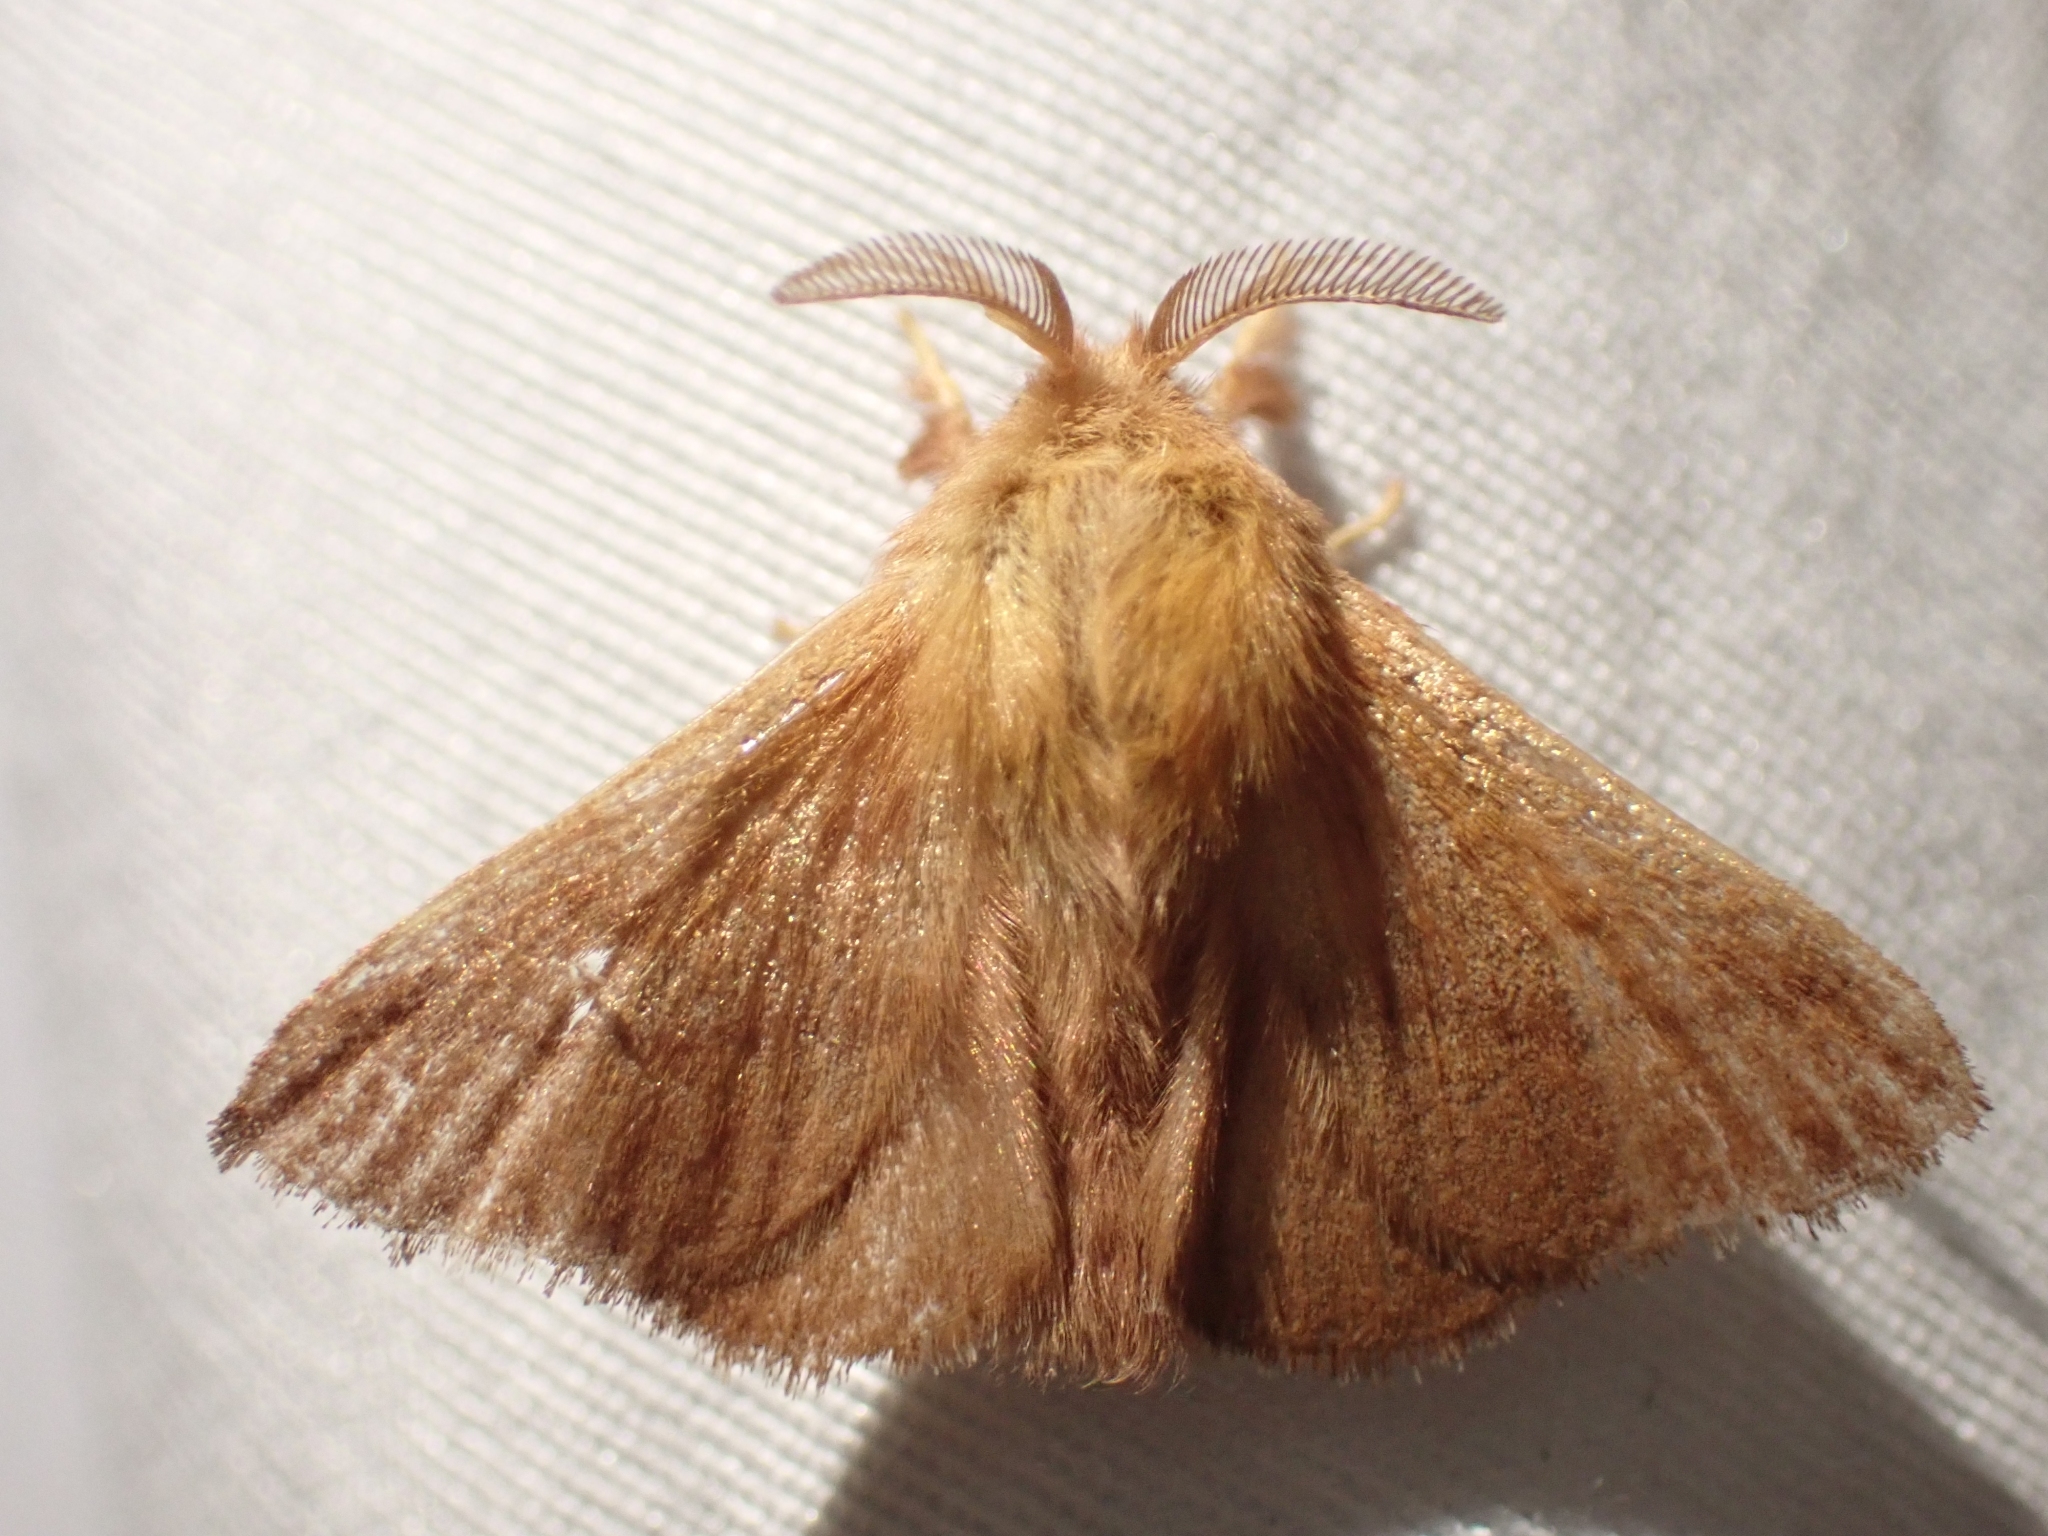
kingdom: Animalia
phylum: Arthropoda
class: Insecta
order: Lepidoptera
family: Lasiocampidae
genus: Malacosoma
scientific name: Malacosoma disstria
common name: Forest tent caterpillar
